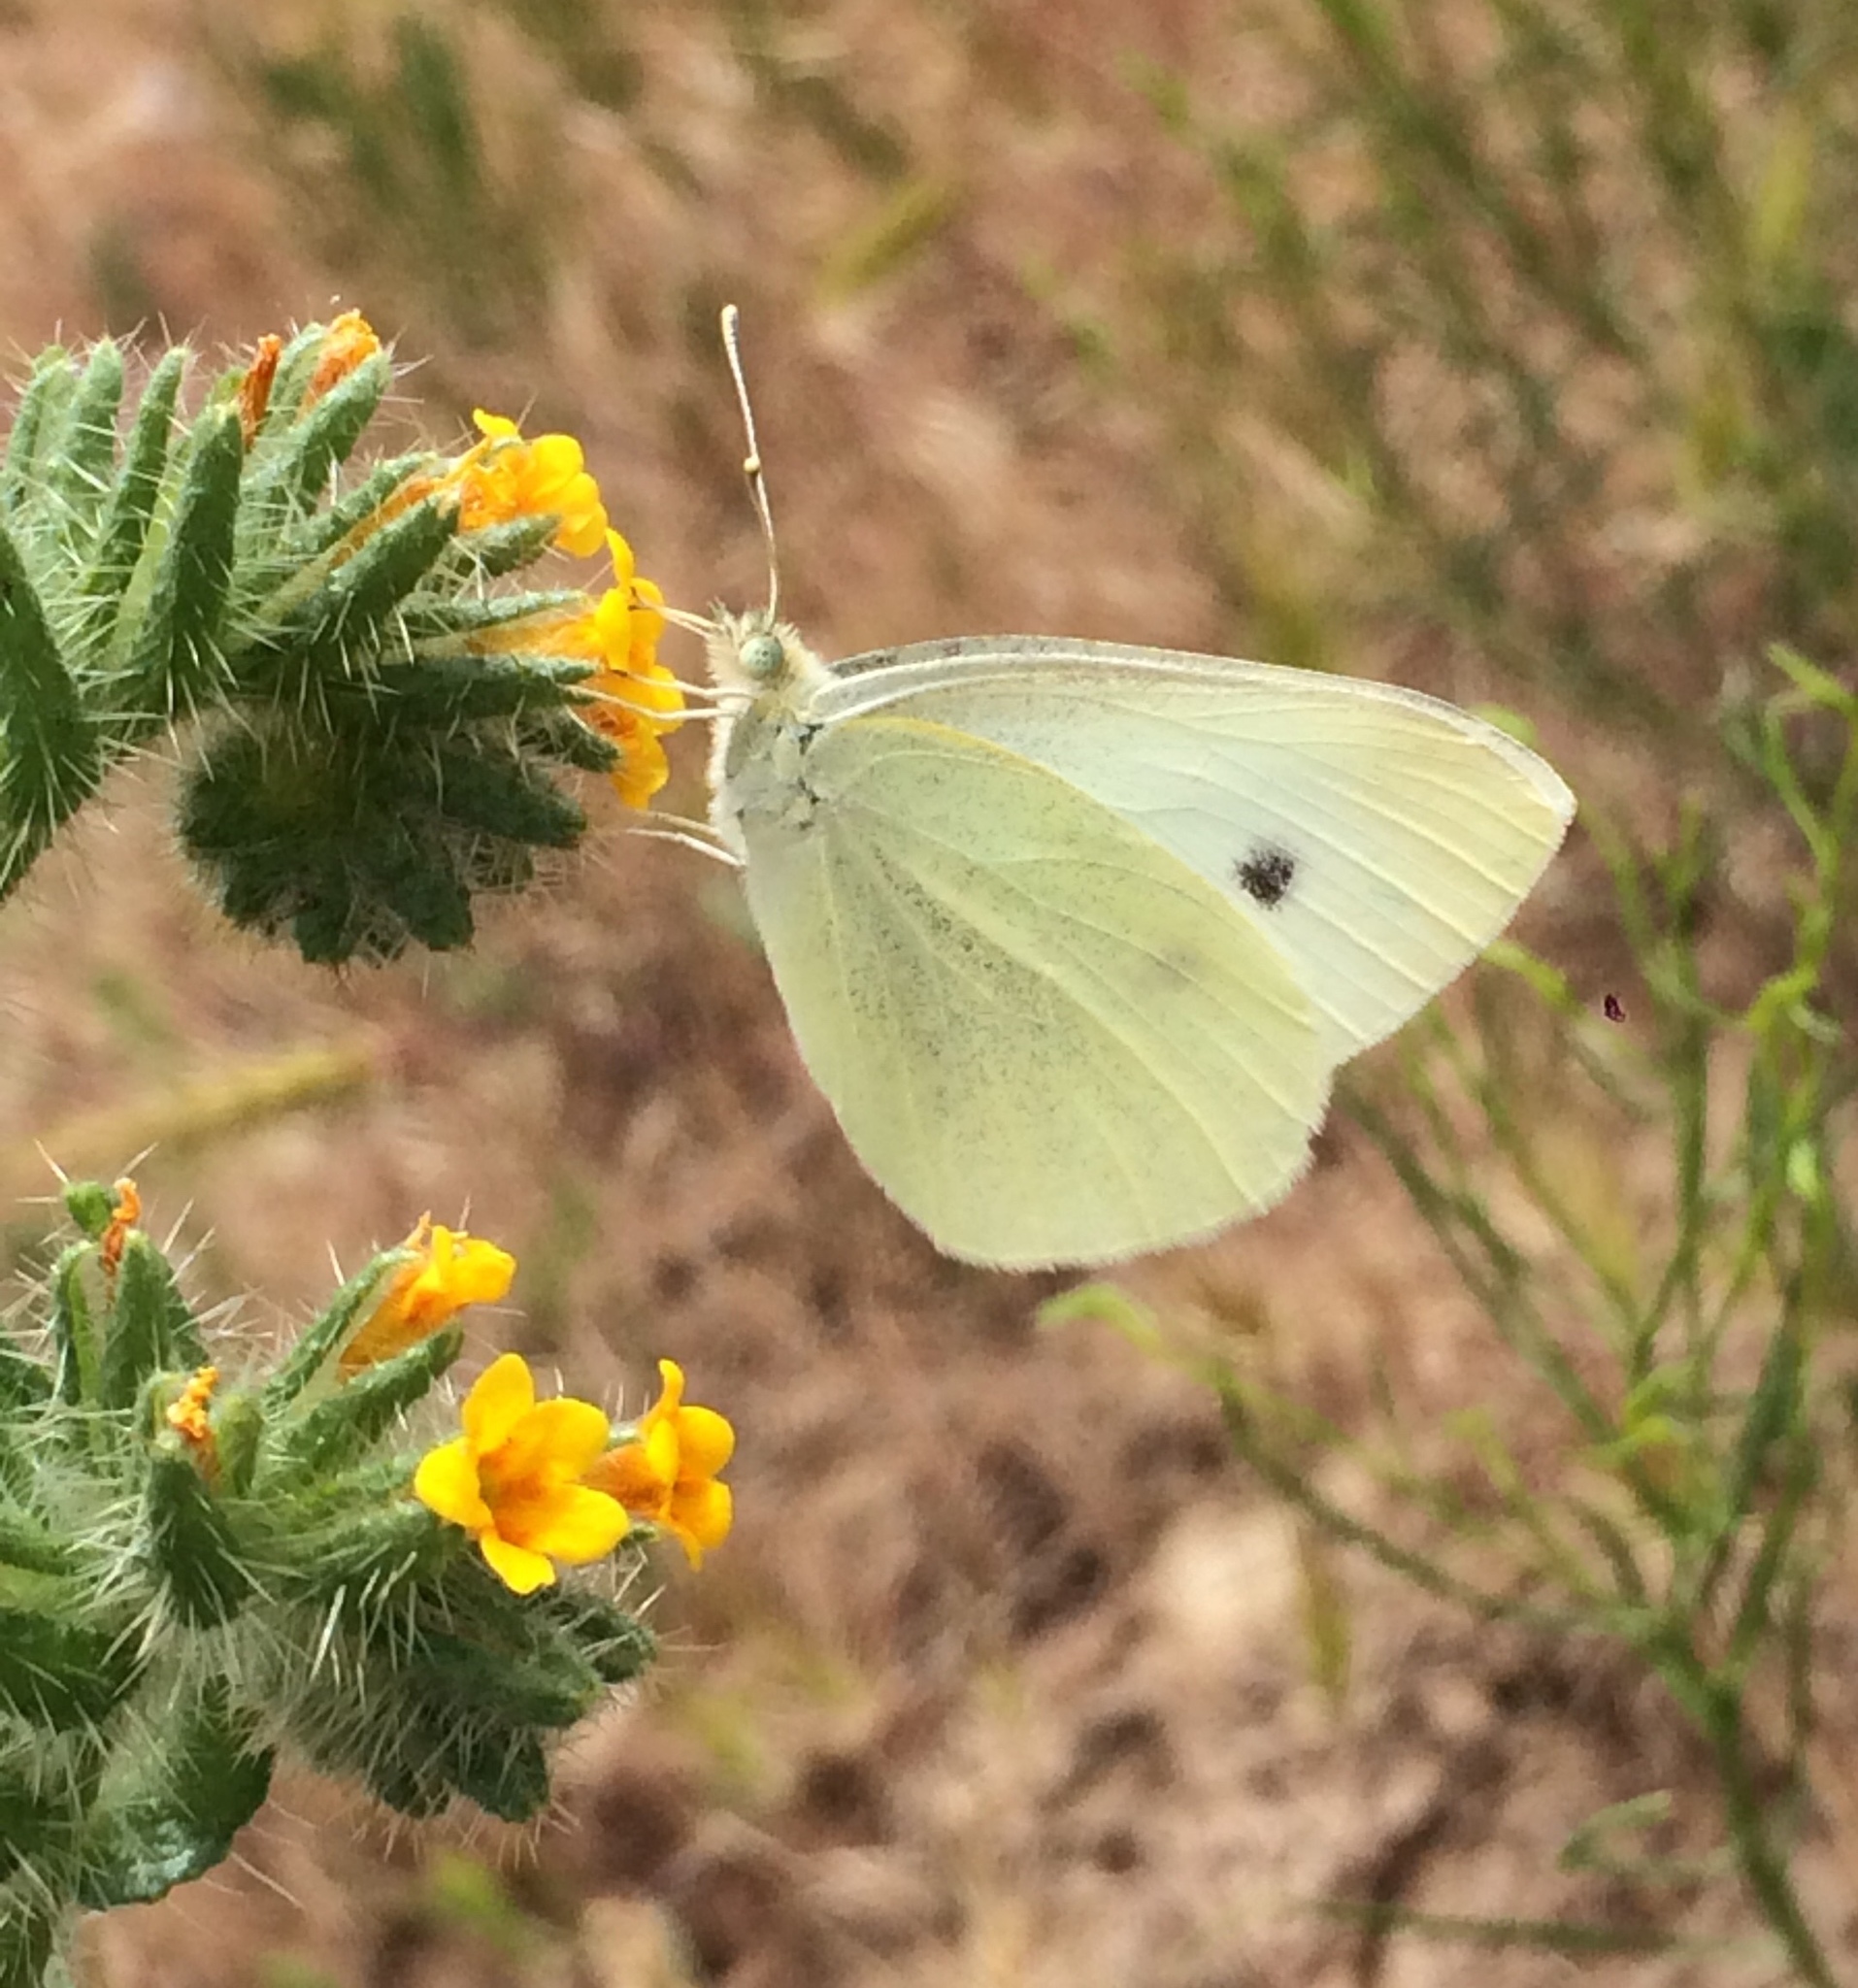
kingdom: Animalia
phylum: Arthropoda
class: Insecta
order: Lepidoptera
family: Pieridae
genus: Pieris
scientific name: Pieris rapae
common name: Small white
